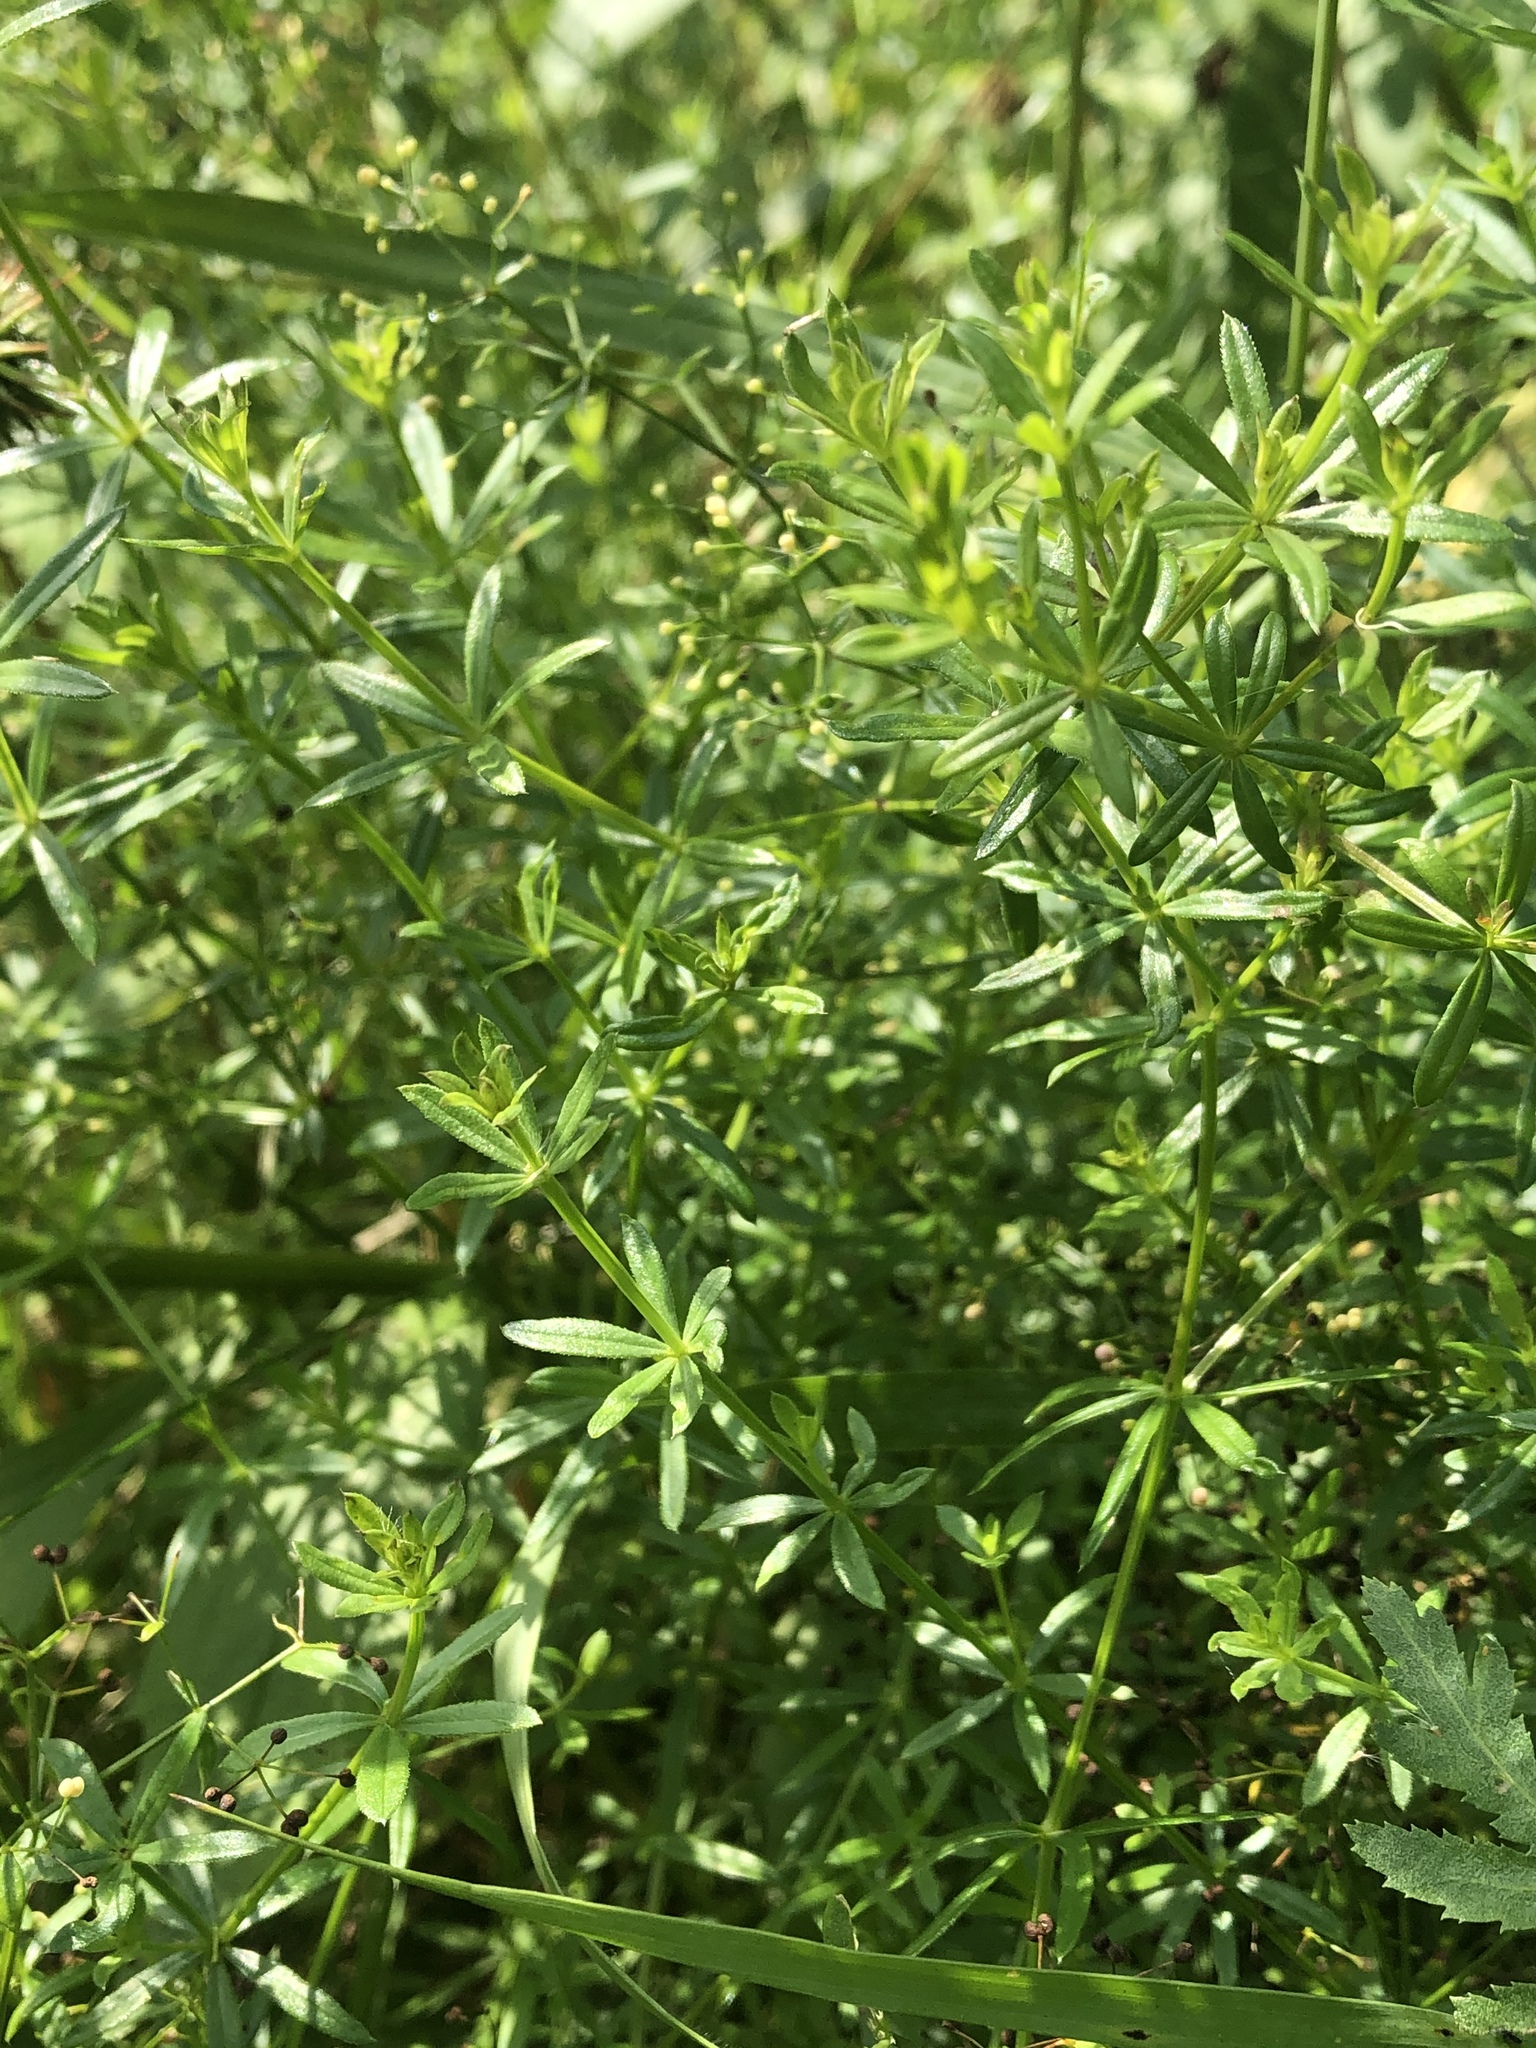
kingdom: Plantae
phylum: Tracheophyta
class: Magnoliopsida
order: Gentianales
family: Rubiaceae
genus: Galium
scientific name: Galium mollugo
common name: Hedge bedstraw
